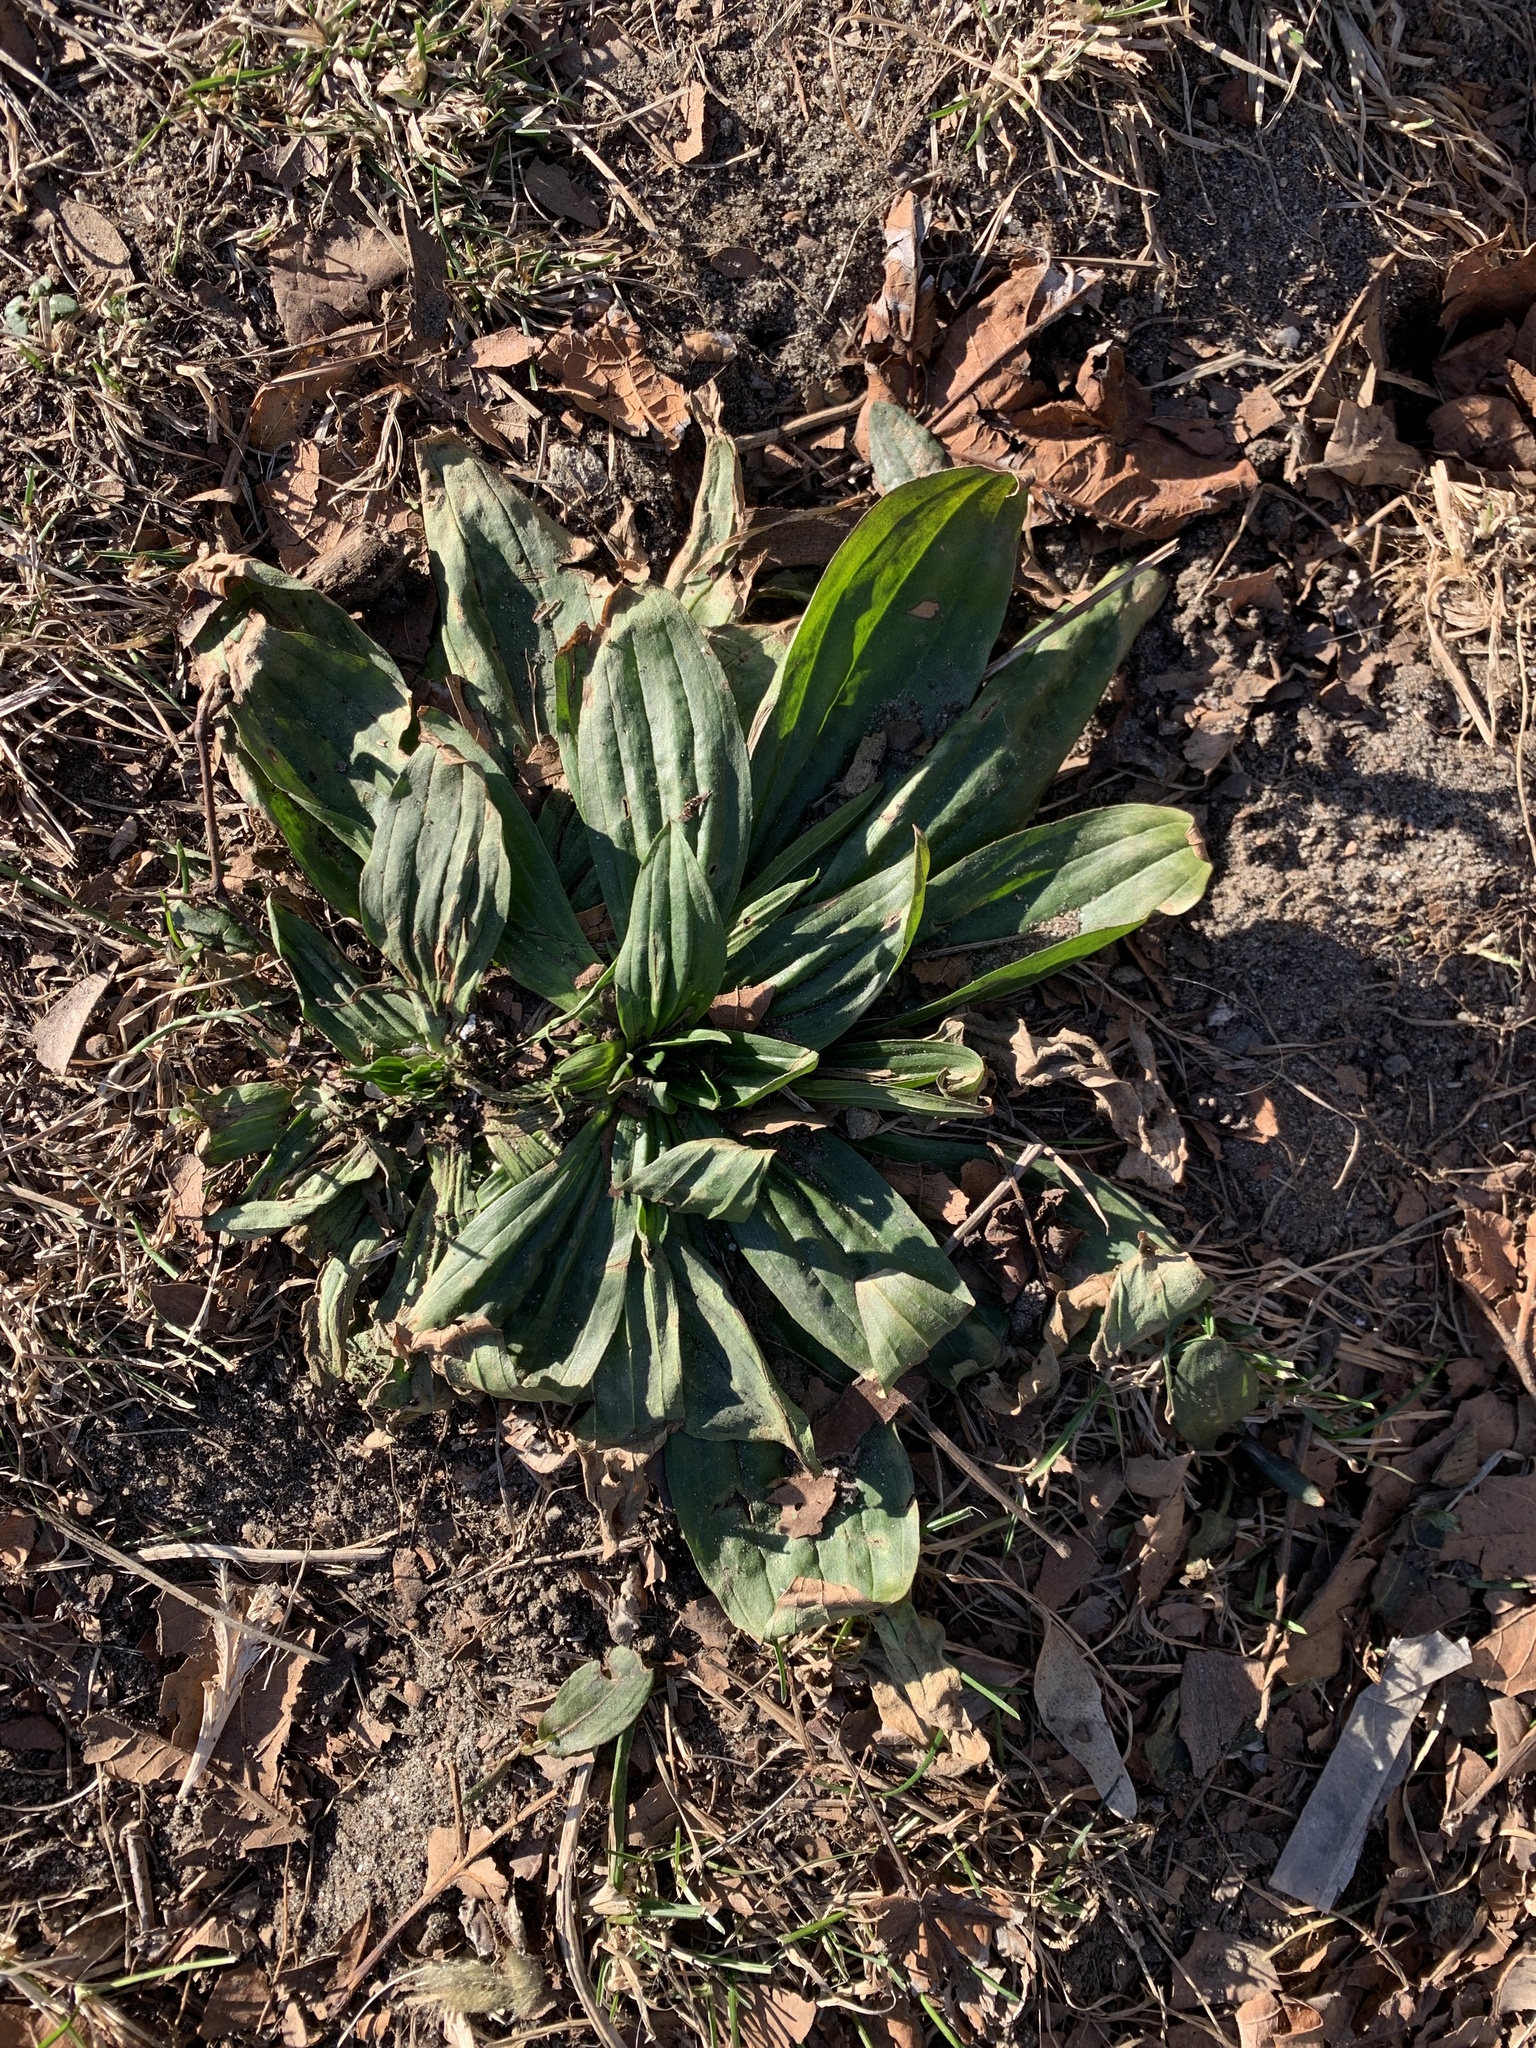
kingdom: Plantae
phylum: Tracheophyta
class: Magnoliopsida
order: Lamiales
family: Plantaginaceae
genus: Plantago
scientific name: Plantago lanceolata
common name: Ribwort plantain
